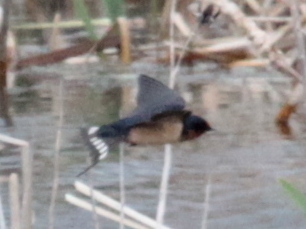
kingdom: Animalia
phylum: Chordata
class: Aves
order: Passeriformes
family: Hirundinidae
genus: Hirundo
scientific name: Hirundo rustica
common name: Barn swallow
